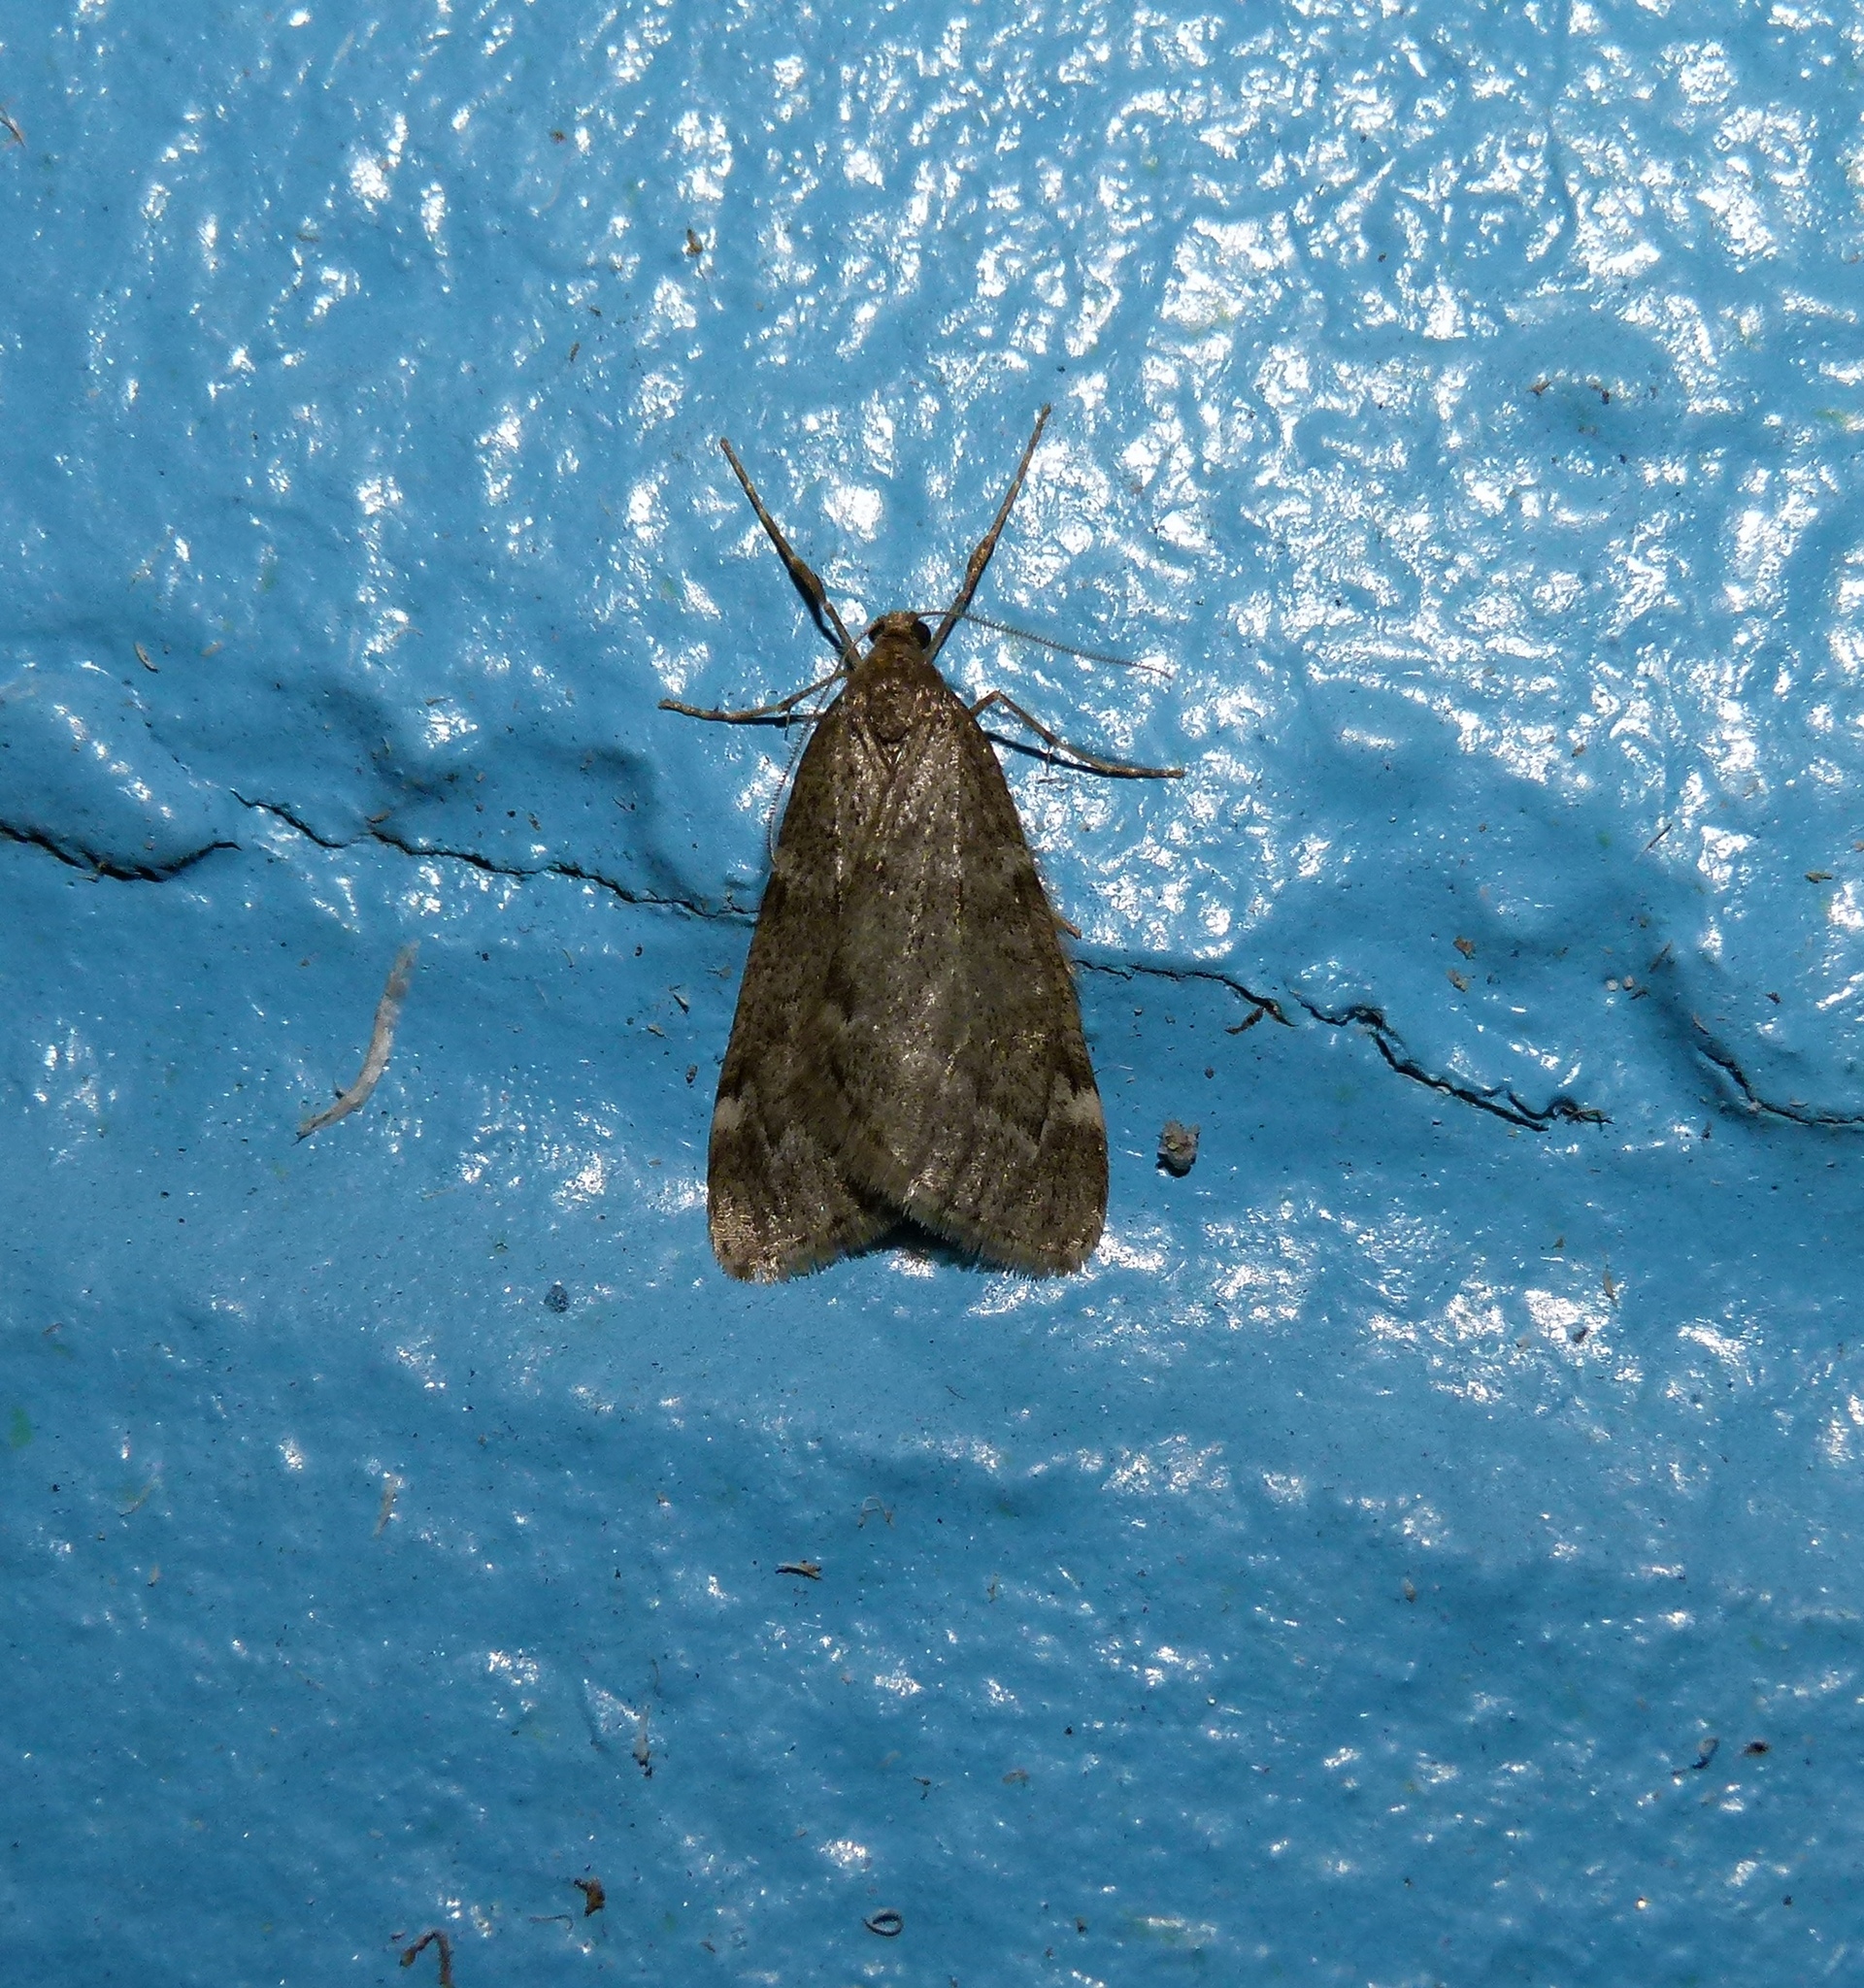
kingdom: Animalia
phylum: Arthropoda
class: Insecta
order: Lepidoptera
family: Geometridae
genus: Alsophila
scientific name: Alsophila pometaria
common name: Fall cankerworm
